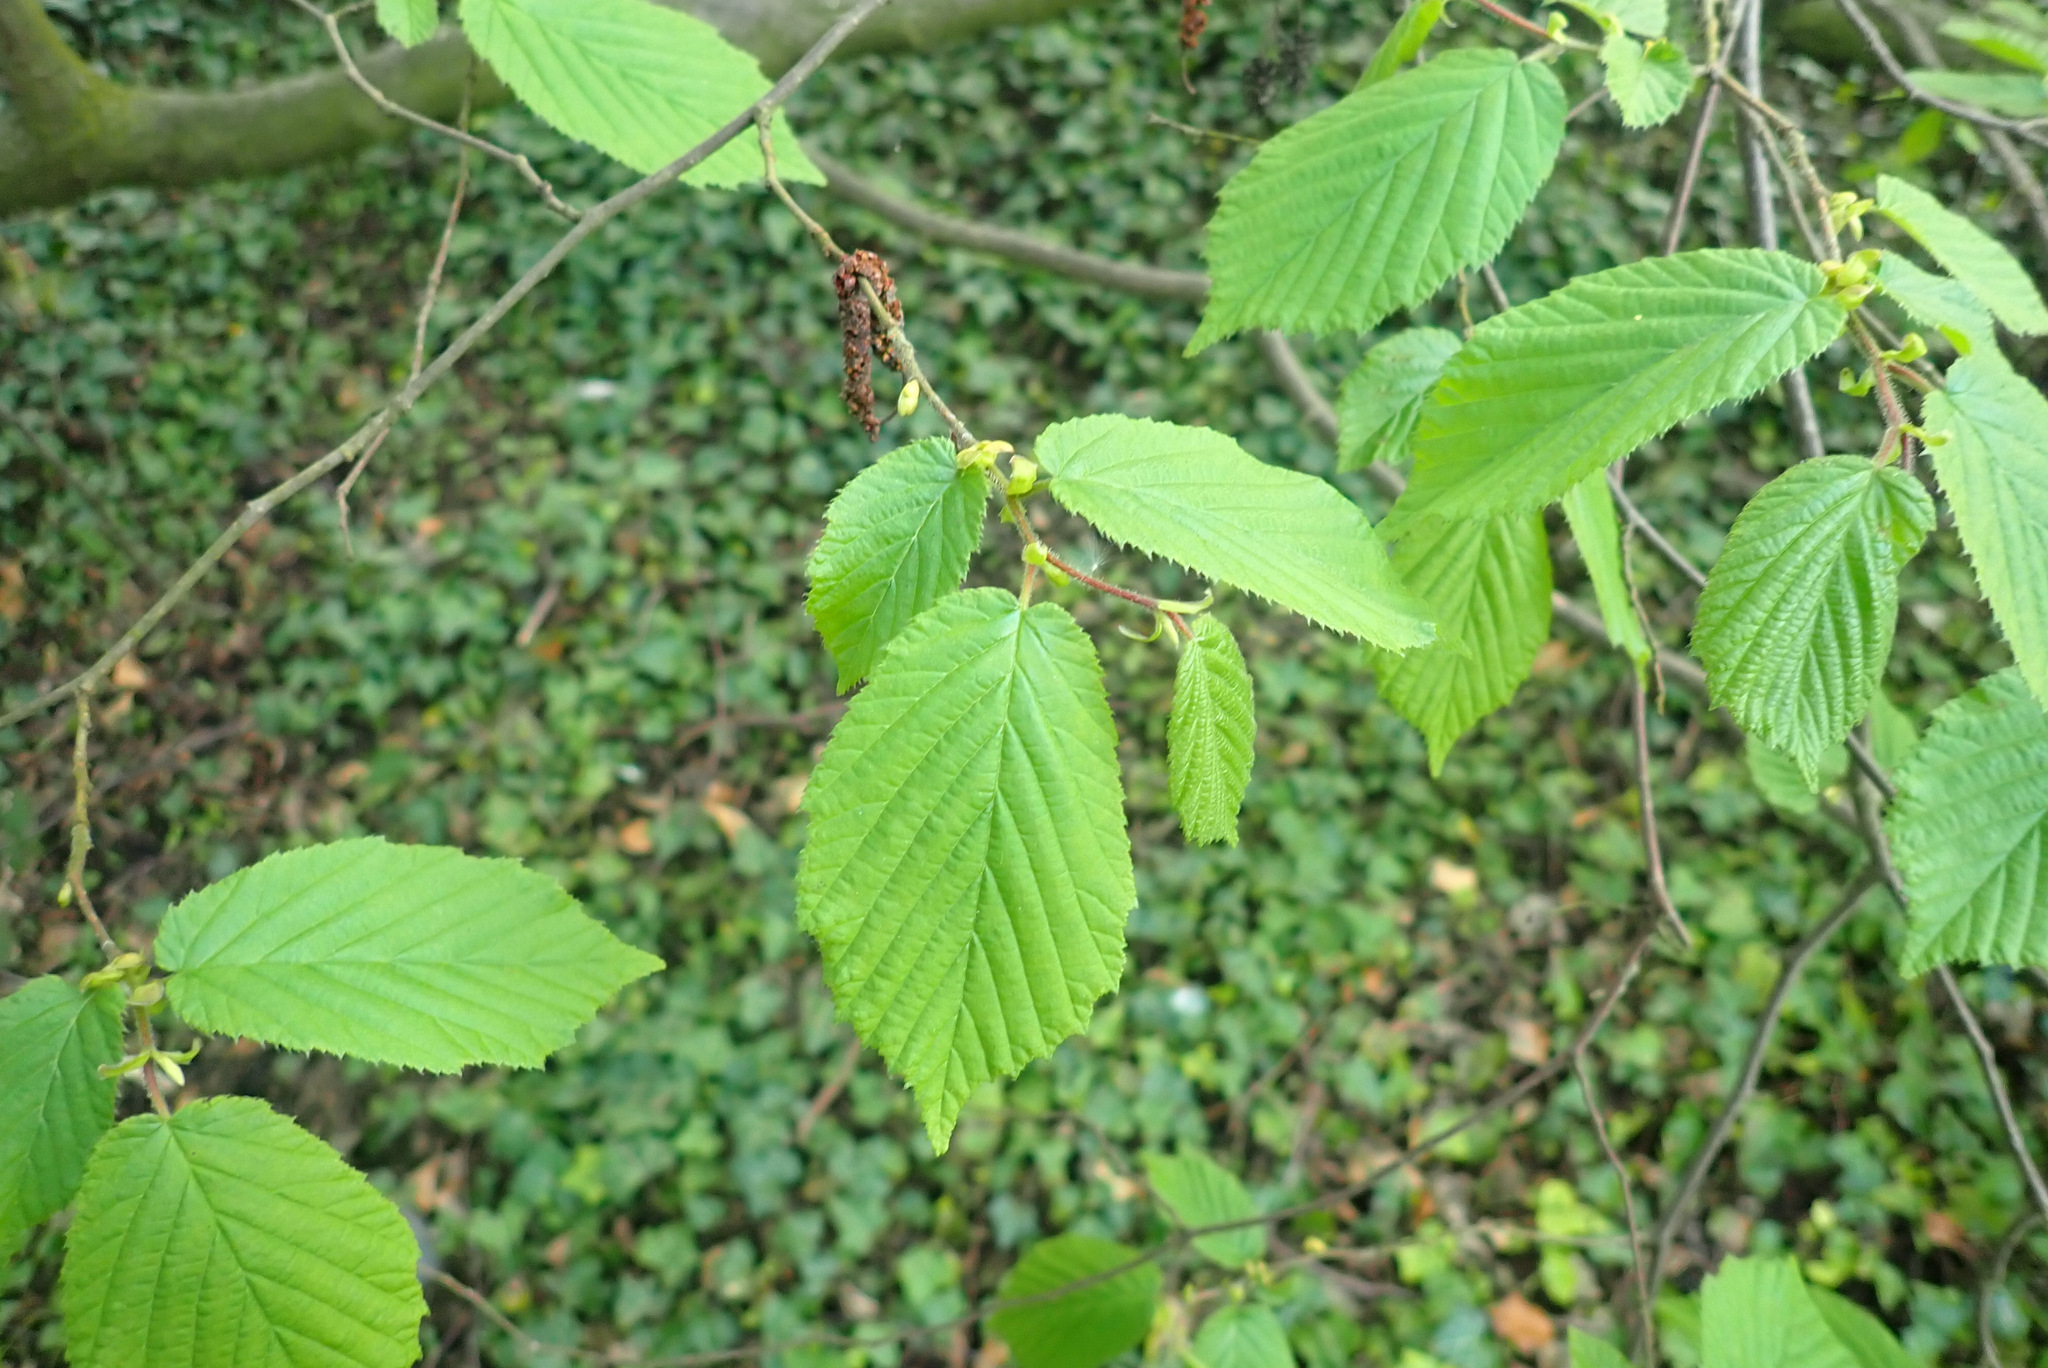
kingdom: Plantae
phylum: Tracheophyta
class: Magnoliopsida
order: Caryophyllales
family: Polygonaceae
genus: Reynoutria
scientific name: Reynoutria japonica
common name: Japanese knotweed
